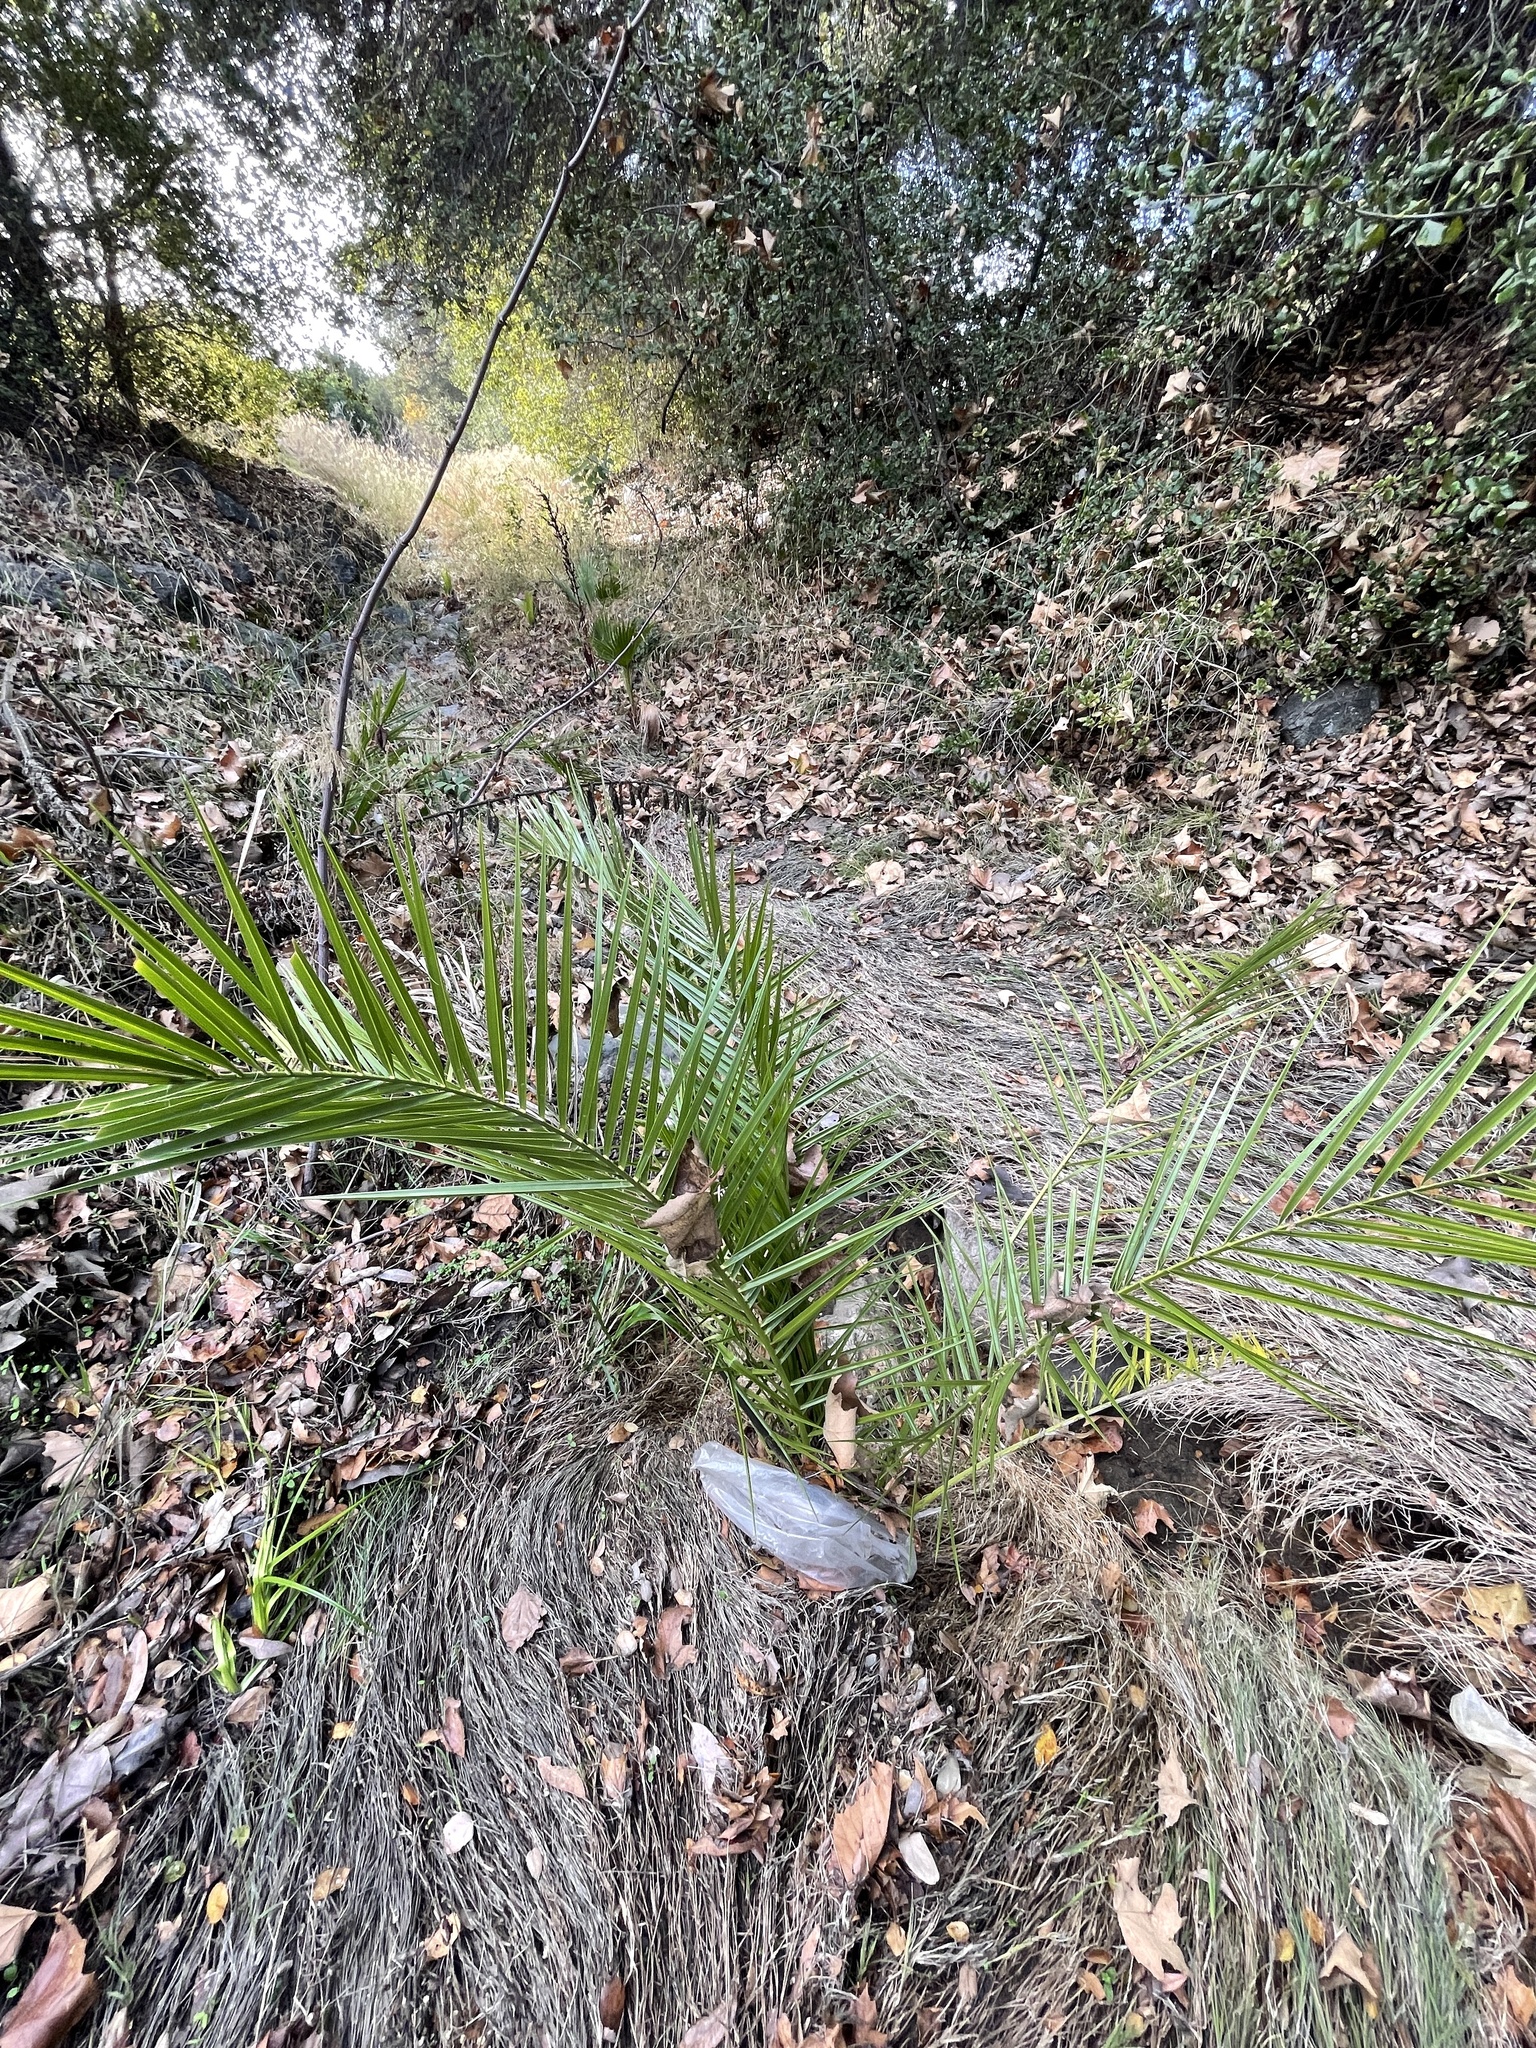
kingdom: Plantae
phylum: Tracheophyta
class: Liliopsida
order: Arecales
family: Arecaceae
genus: Phoenix
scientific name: Phoenix canariensis
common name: Canary island date palm
